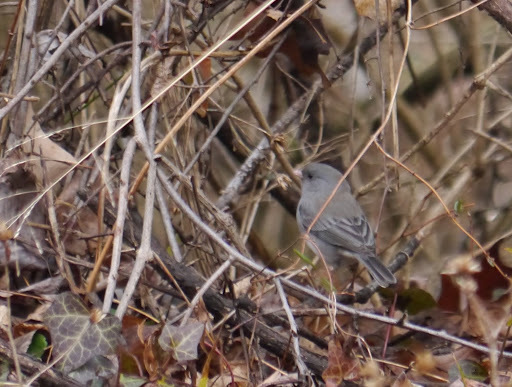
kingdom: Animalia
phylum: Chordata
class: Aves
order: Passeriformes
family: Passerellidae
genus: Junco
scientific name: Junco hyemalis
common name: Dark-eyed junco
